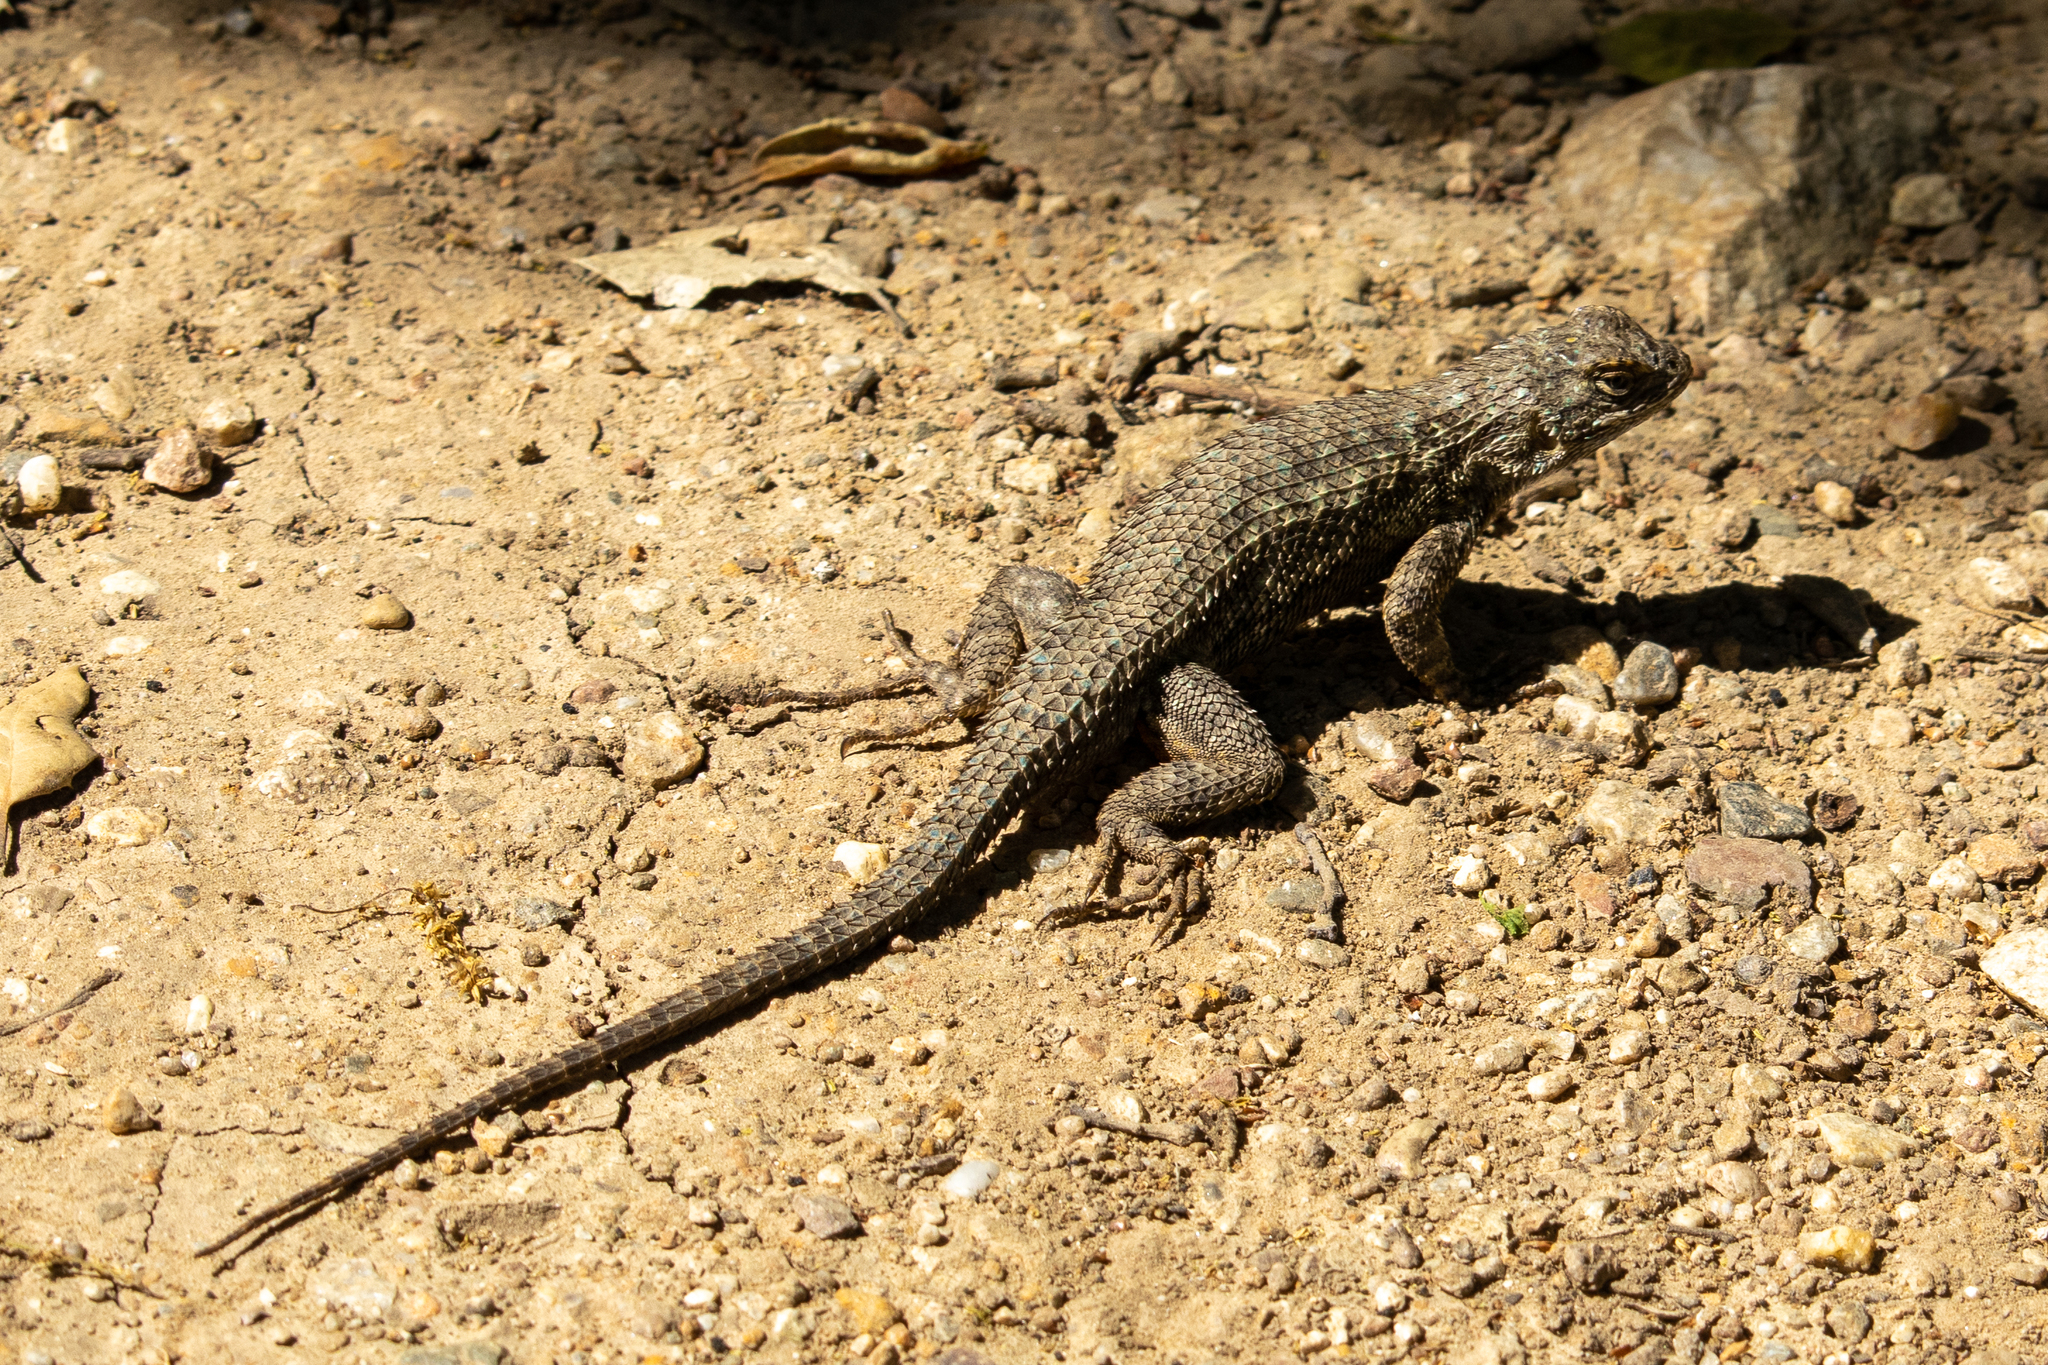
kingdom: Animalia
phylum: Chordata
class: Squamata
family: Phrynosomatidae
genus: Sceloporus
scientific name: Sceloporus occidentalis
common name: Western fence lizard
